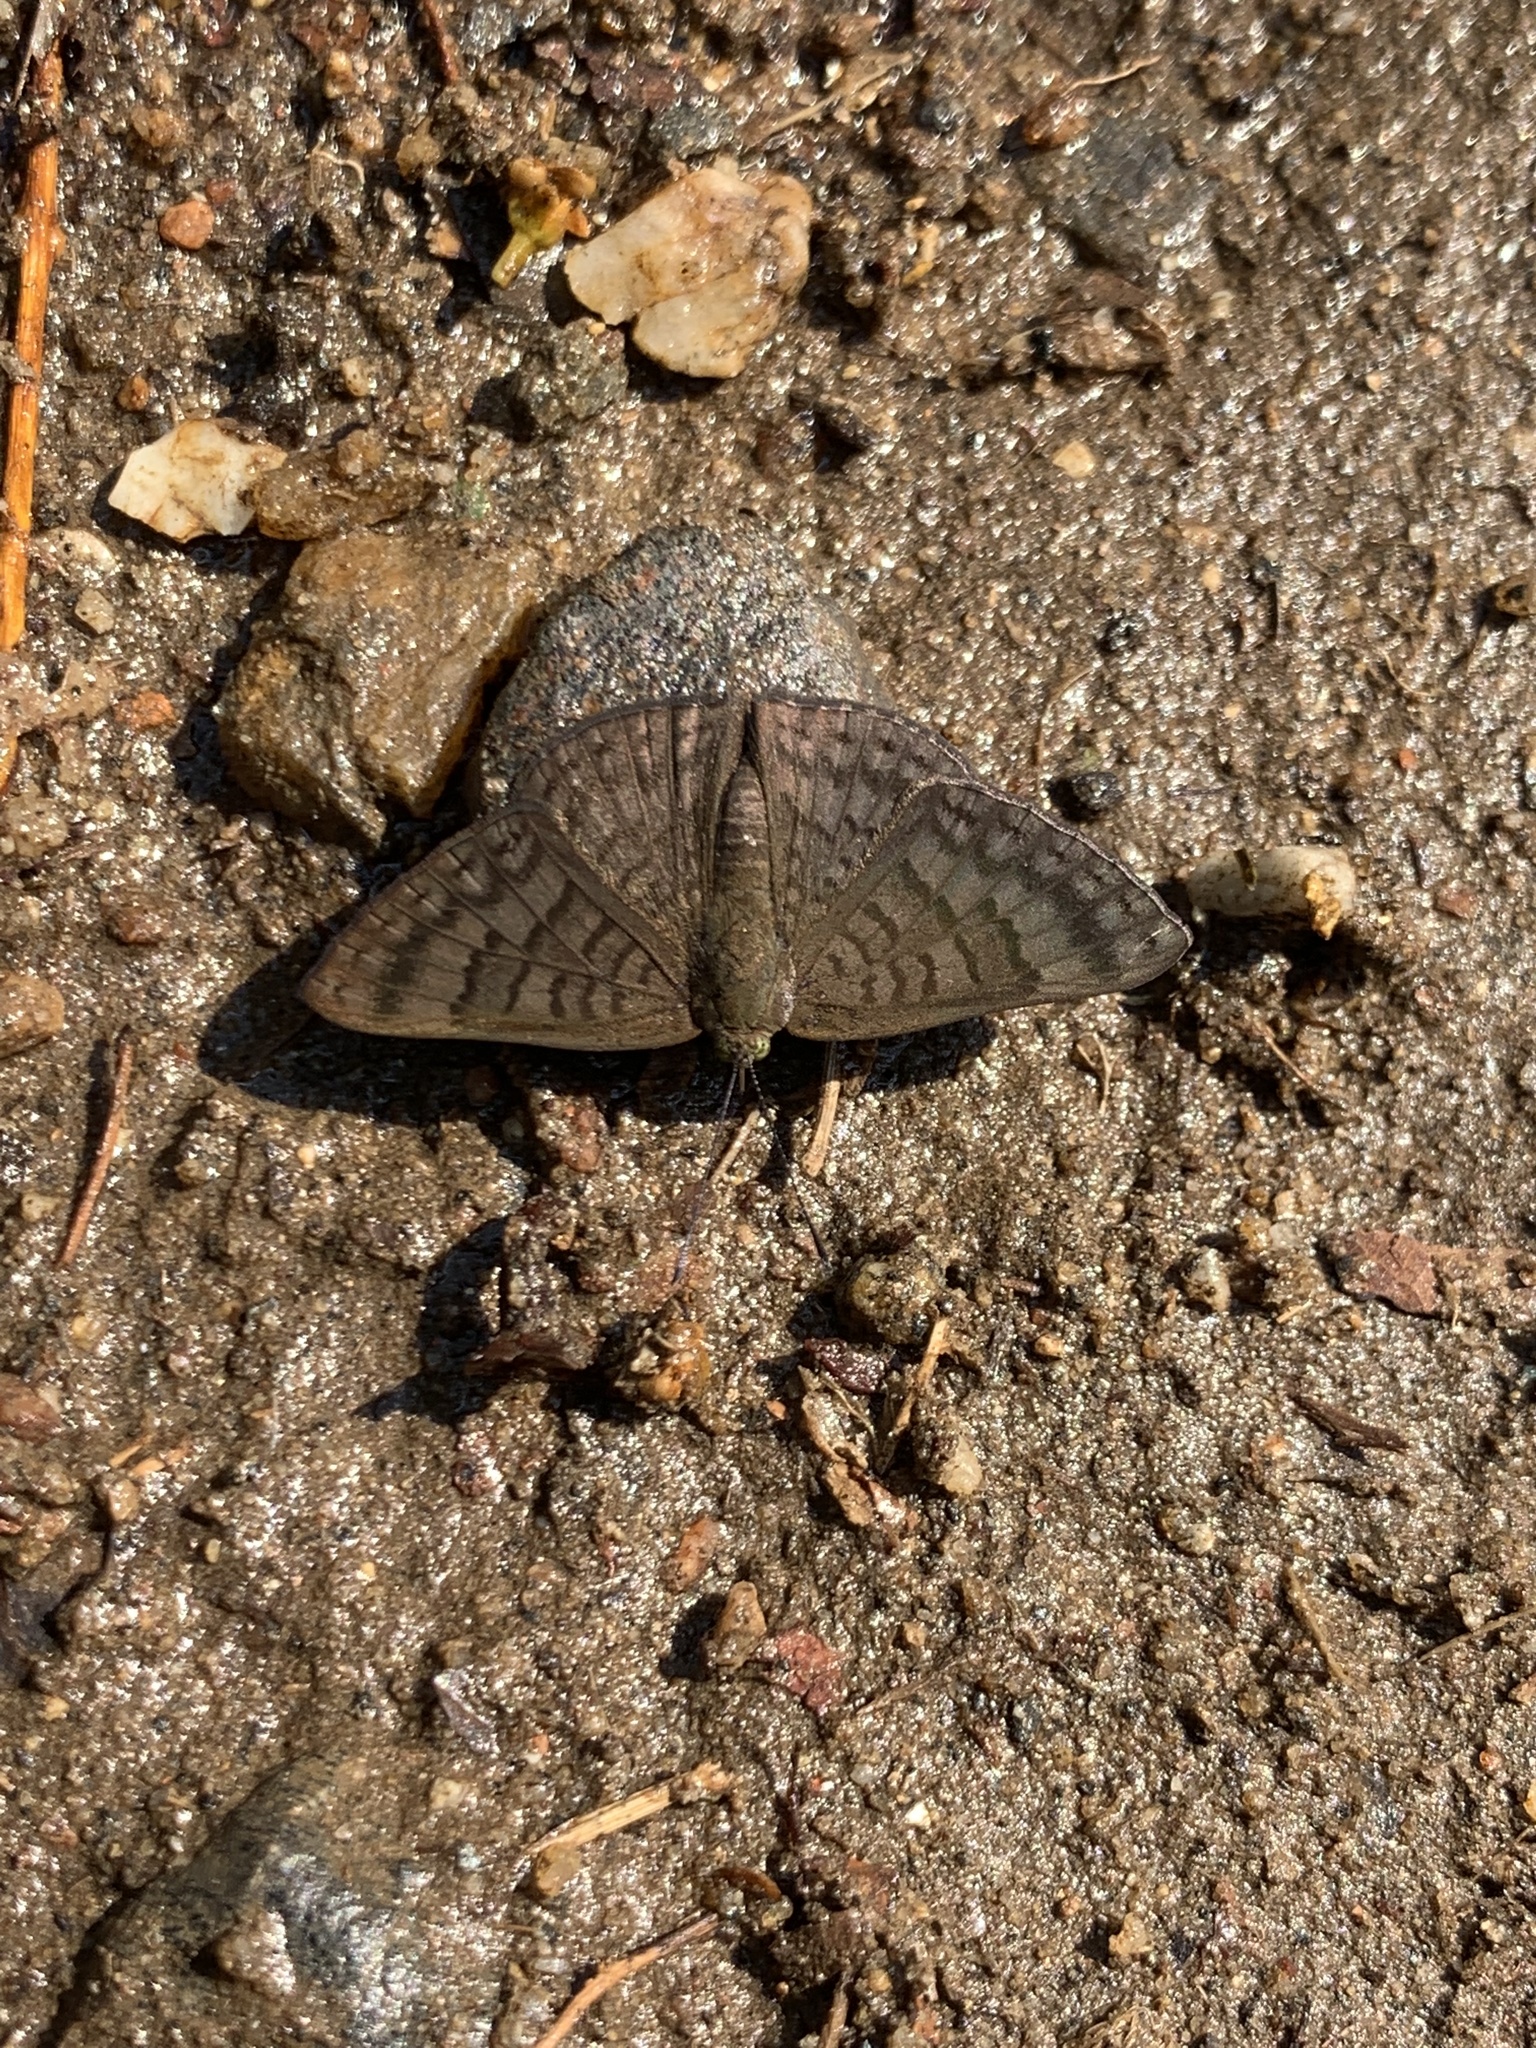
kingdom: Animalia
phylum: Arthropoda
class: Insecta
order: Lepidoptera
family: Lycaenidae
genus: Emesis
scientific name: Emesis ocypore
